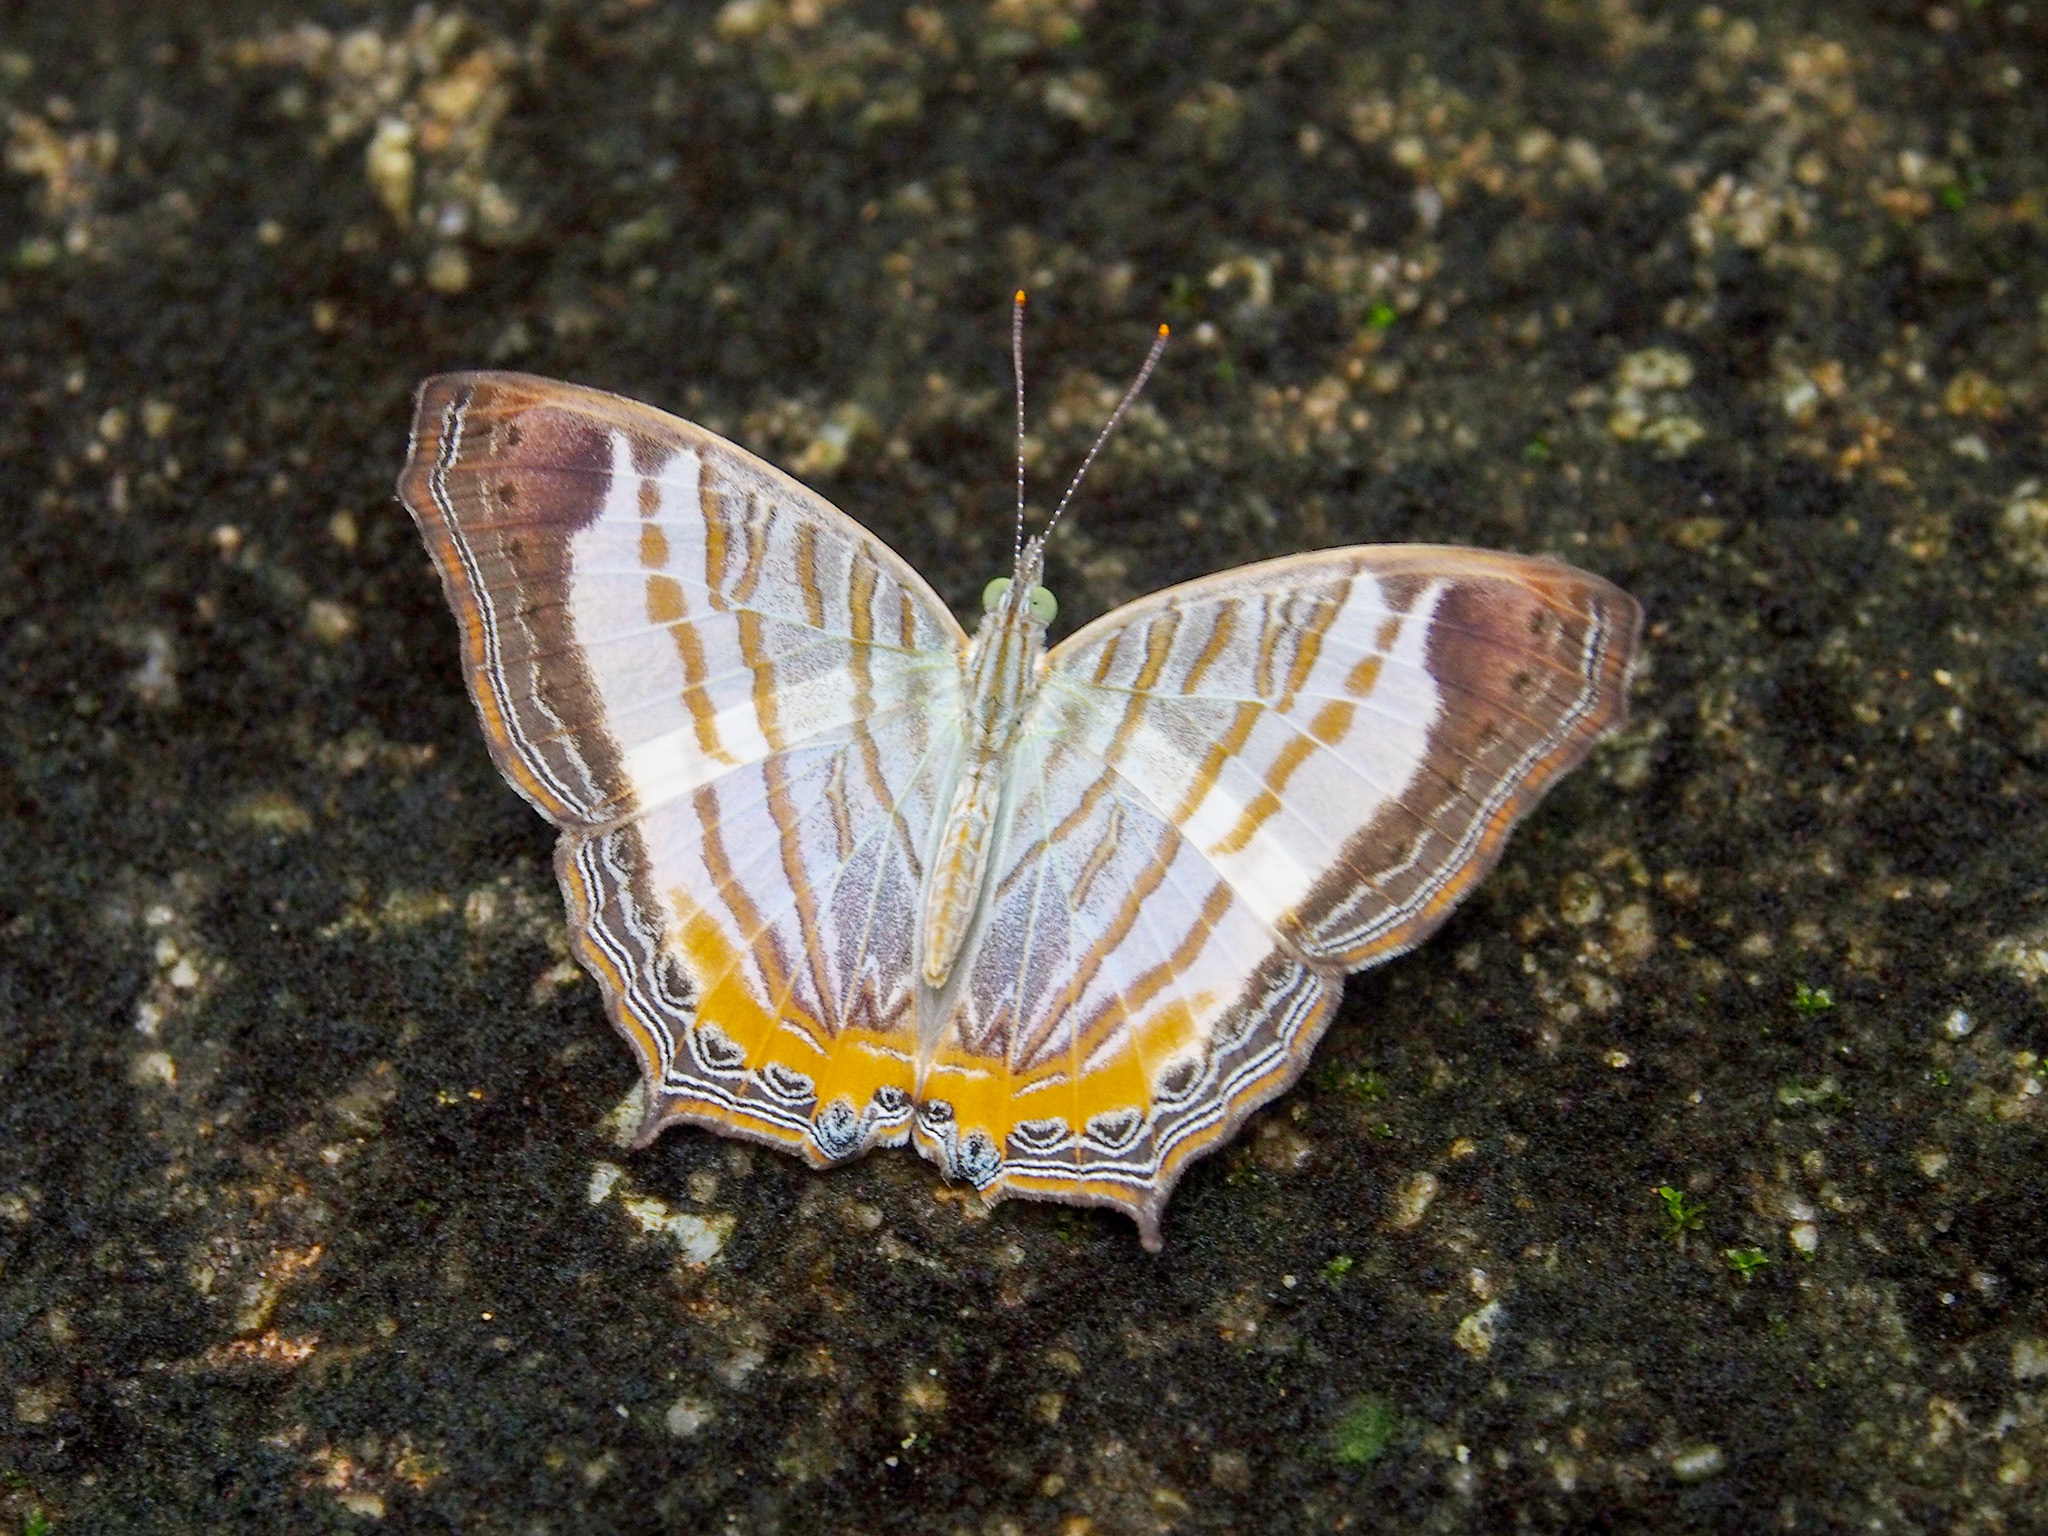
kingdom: Animalia
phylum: Arthropoda
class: Insecta
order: Lepidoptera
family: Nymphalidae
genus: Cyrestis
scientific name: Cyrestis themire
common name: Little mapwing
